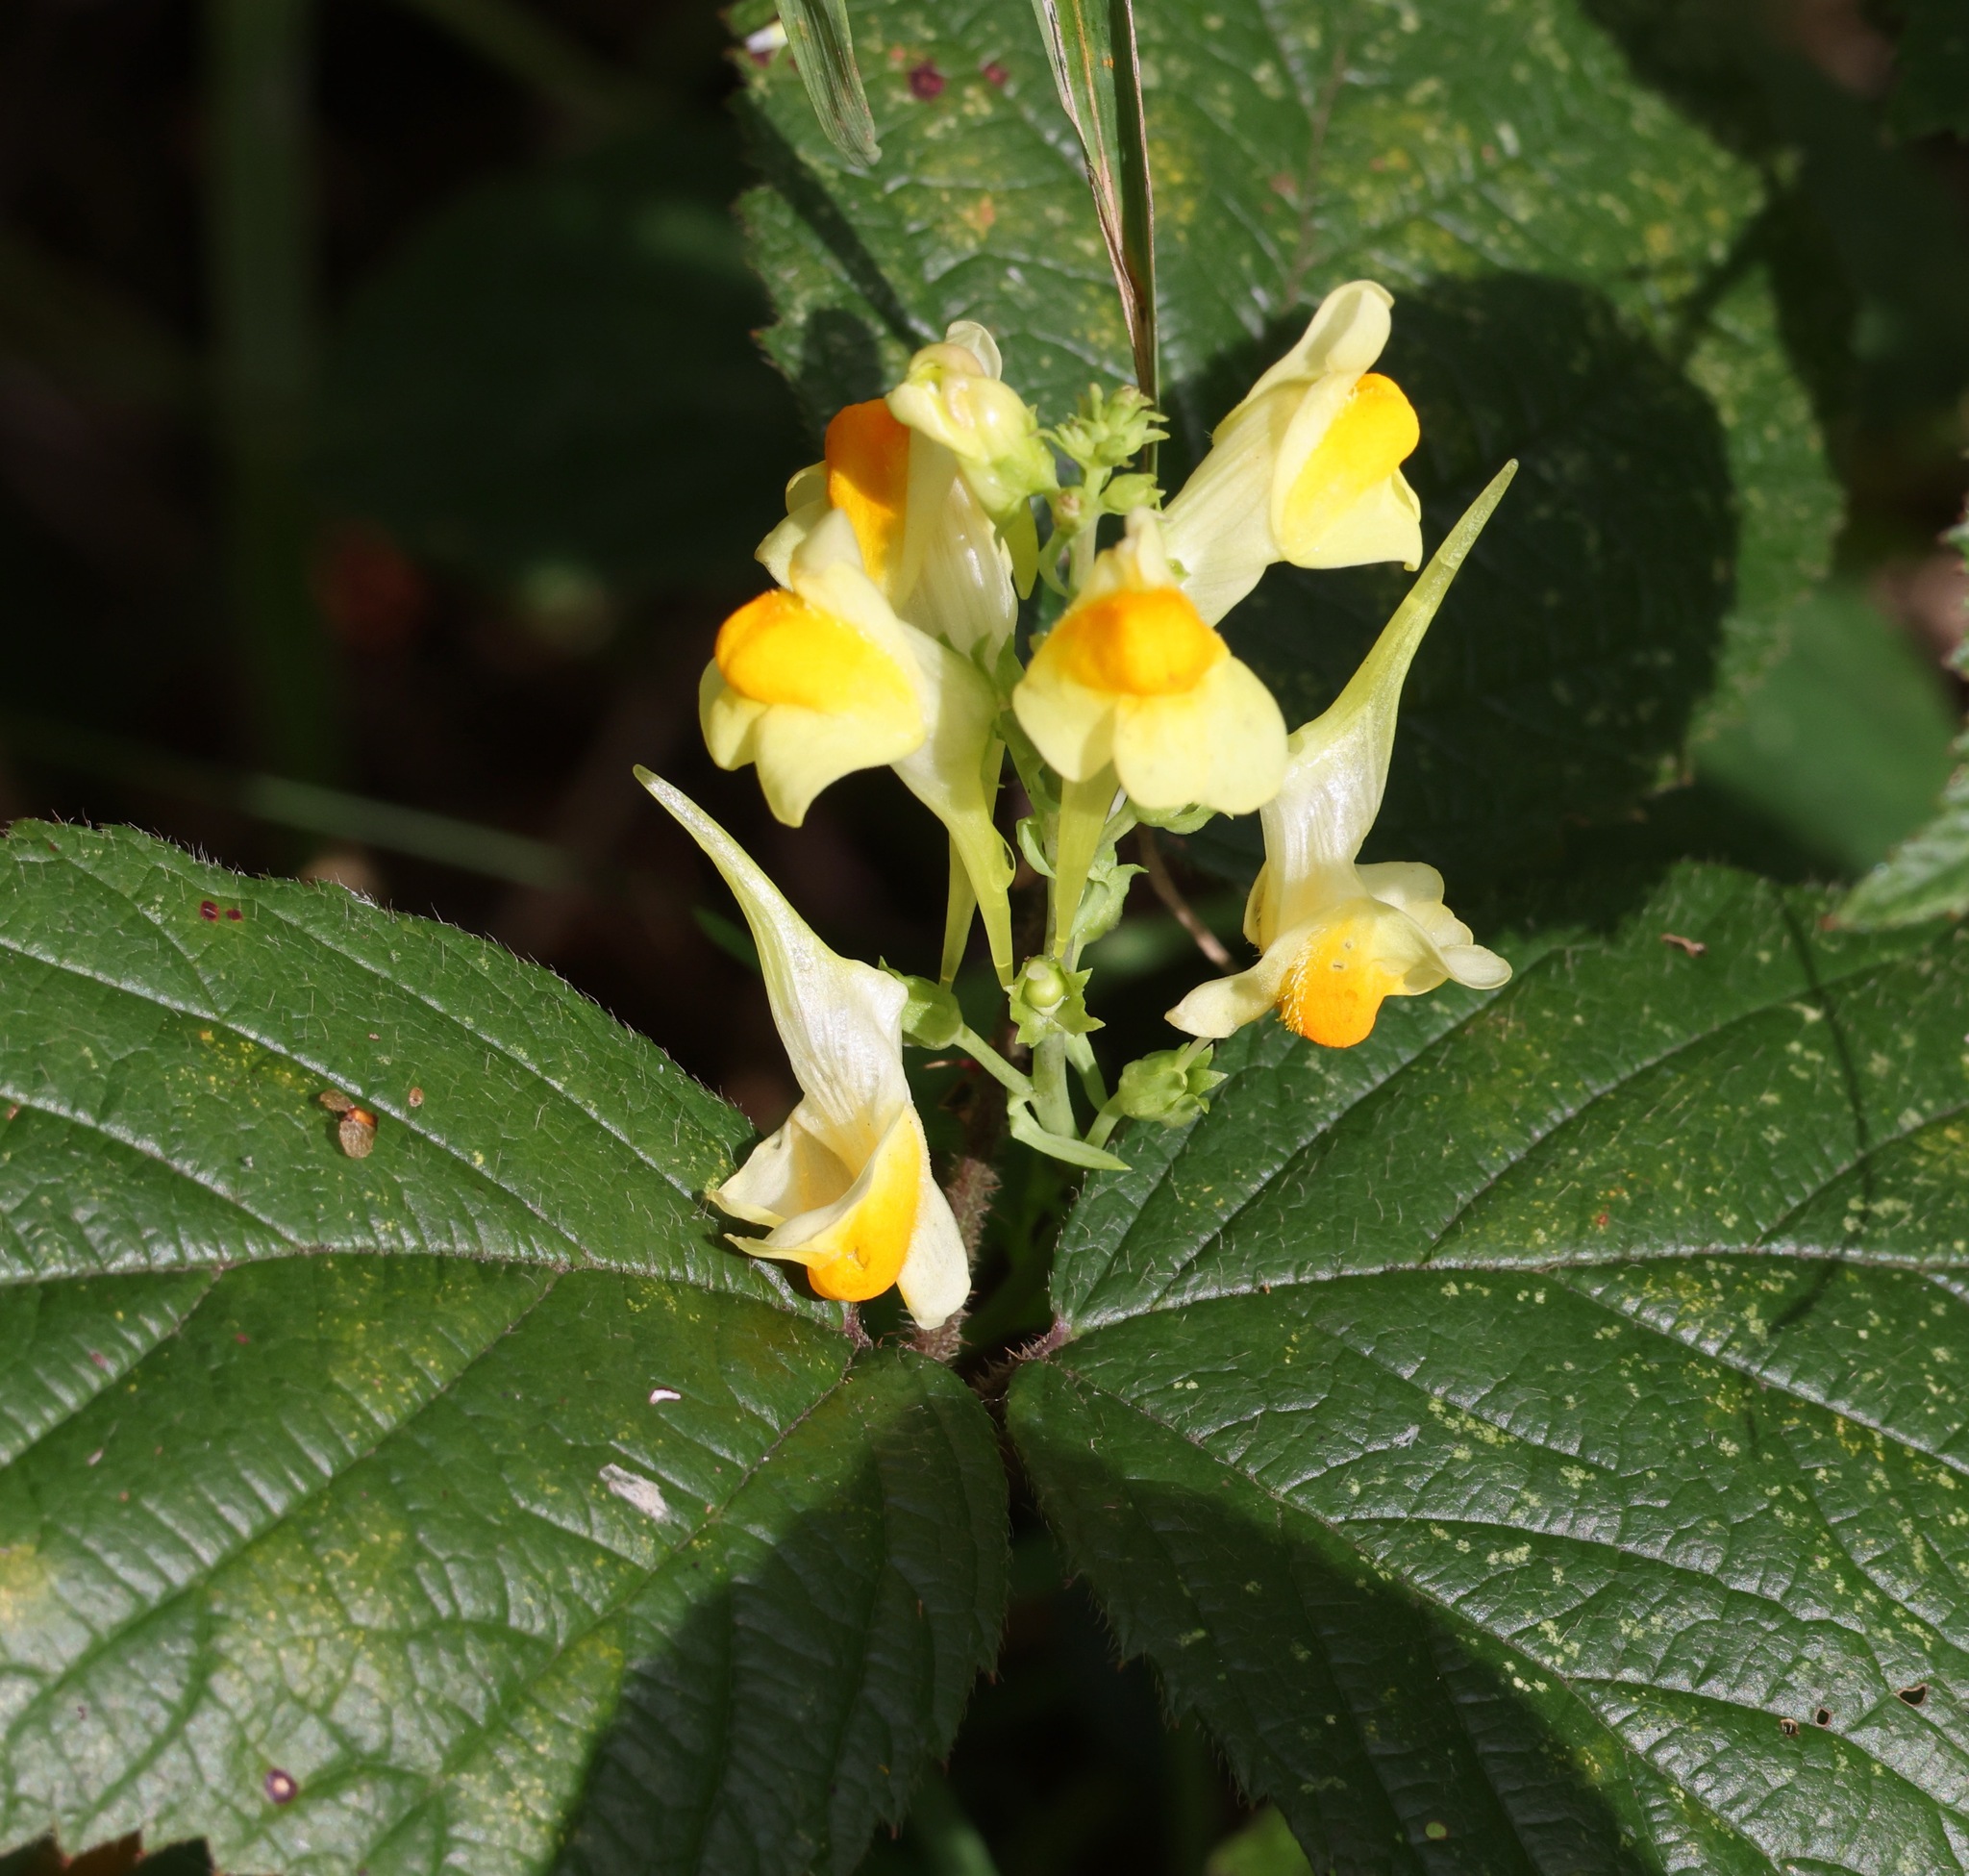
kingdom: Plantae
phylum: Tracheophyta
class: Magnoliopsida
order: Lamiales
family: Plantaginaceae
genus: Linaria
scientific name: Linaria vulgaris
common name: Butter and eggs
